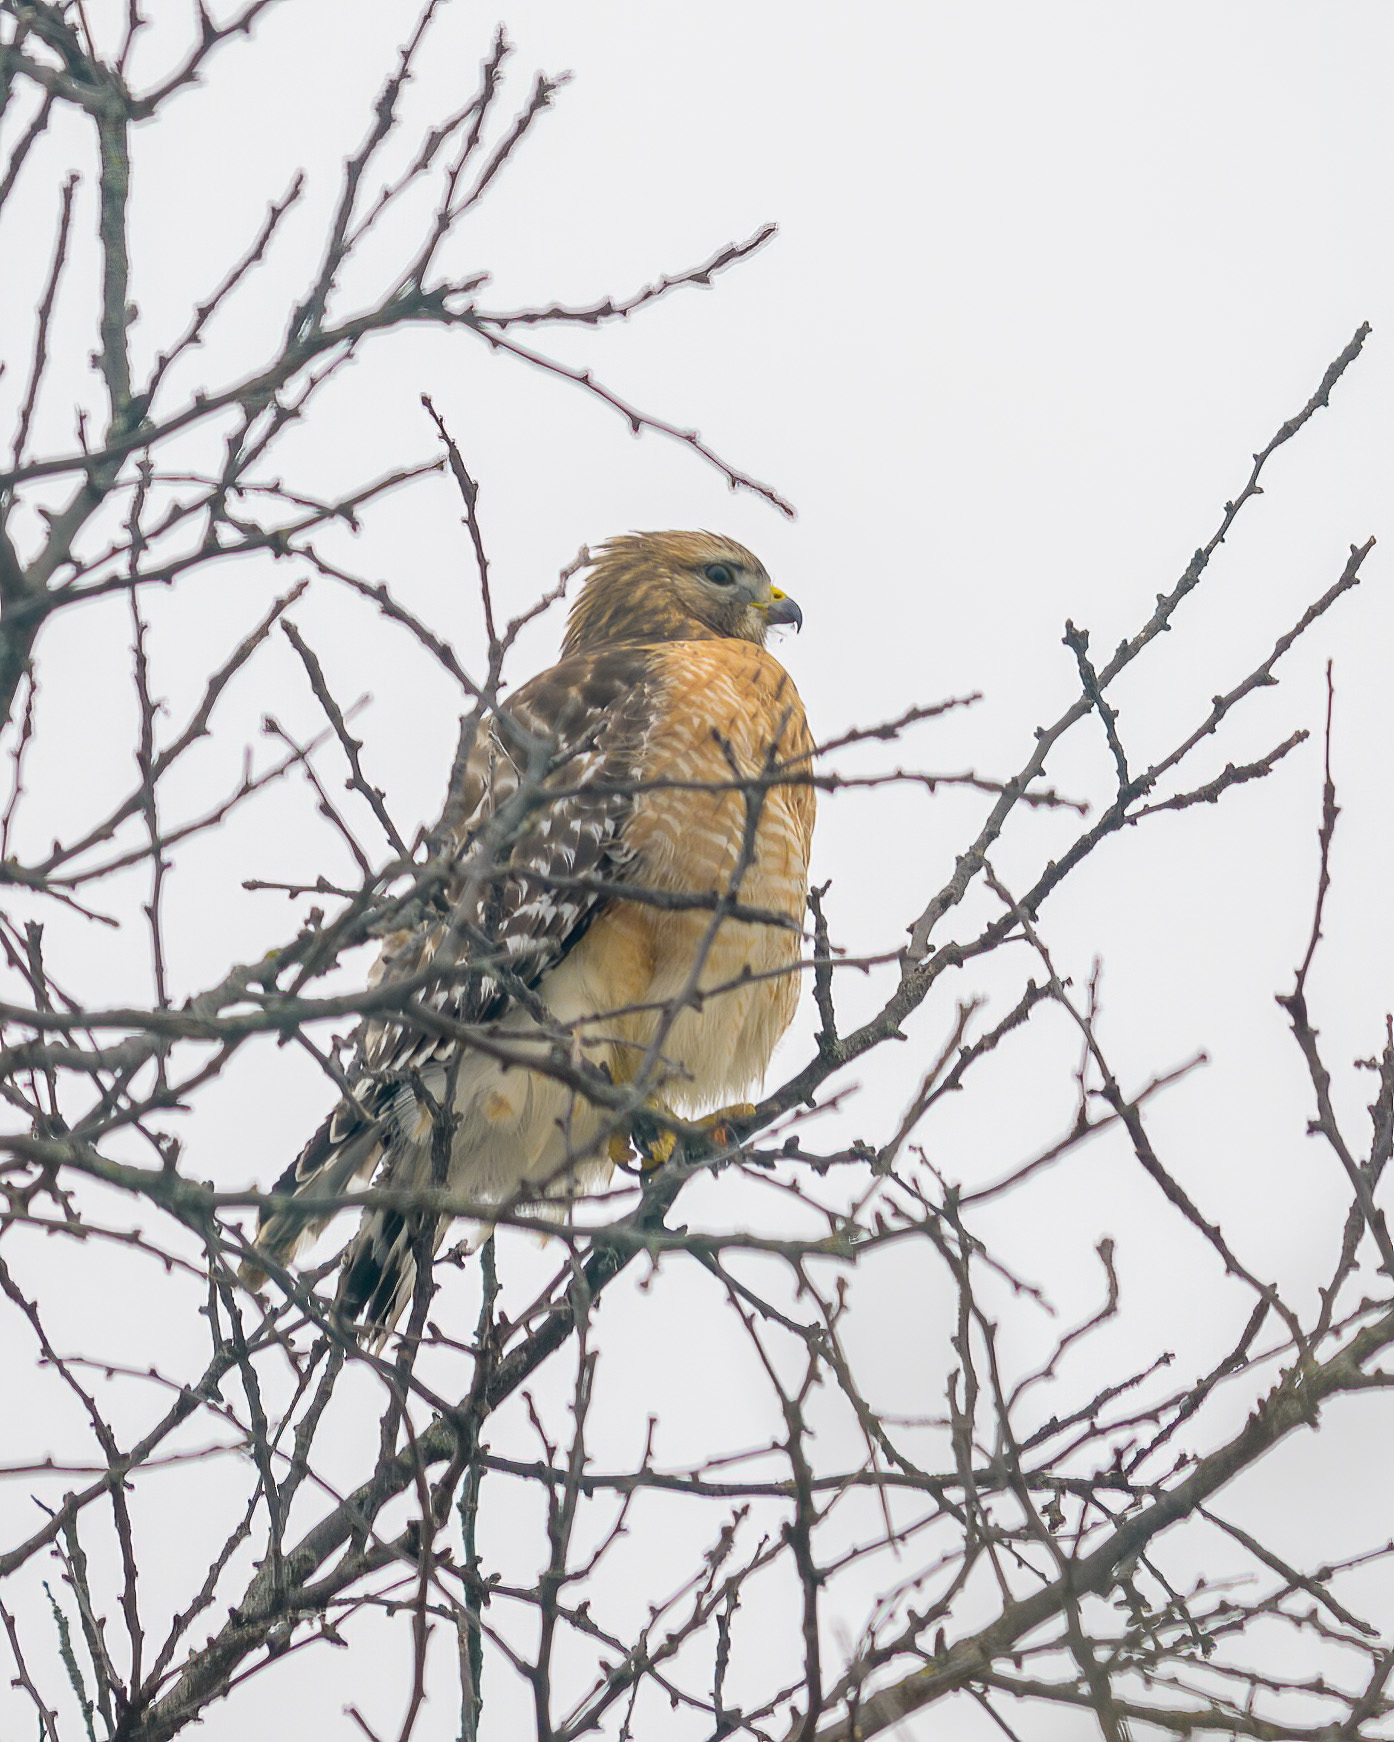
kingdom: Animalia
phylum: Chordata
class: Aves
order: Accipitriformes
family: Accipitridae
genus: Buteo
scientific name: Buteo lineatus
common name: Red-shouldered hawk
